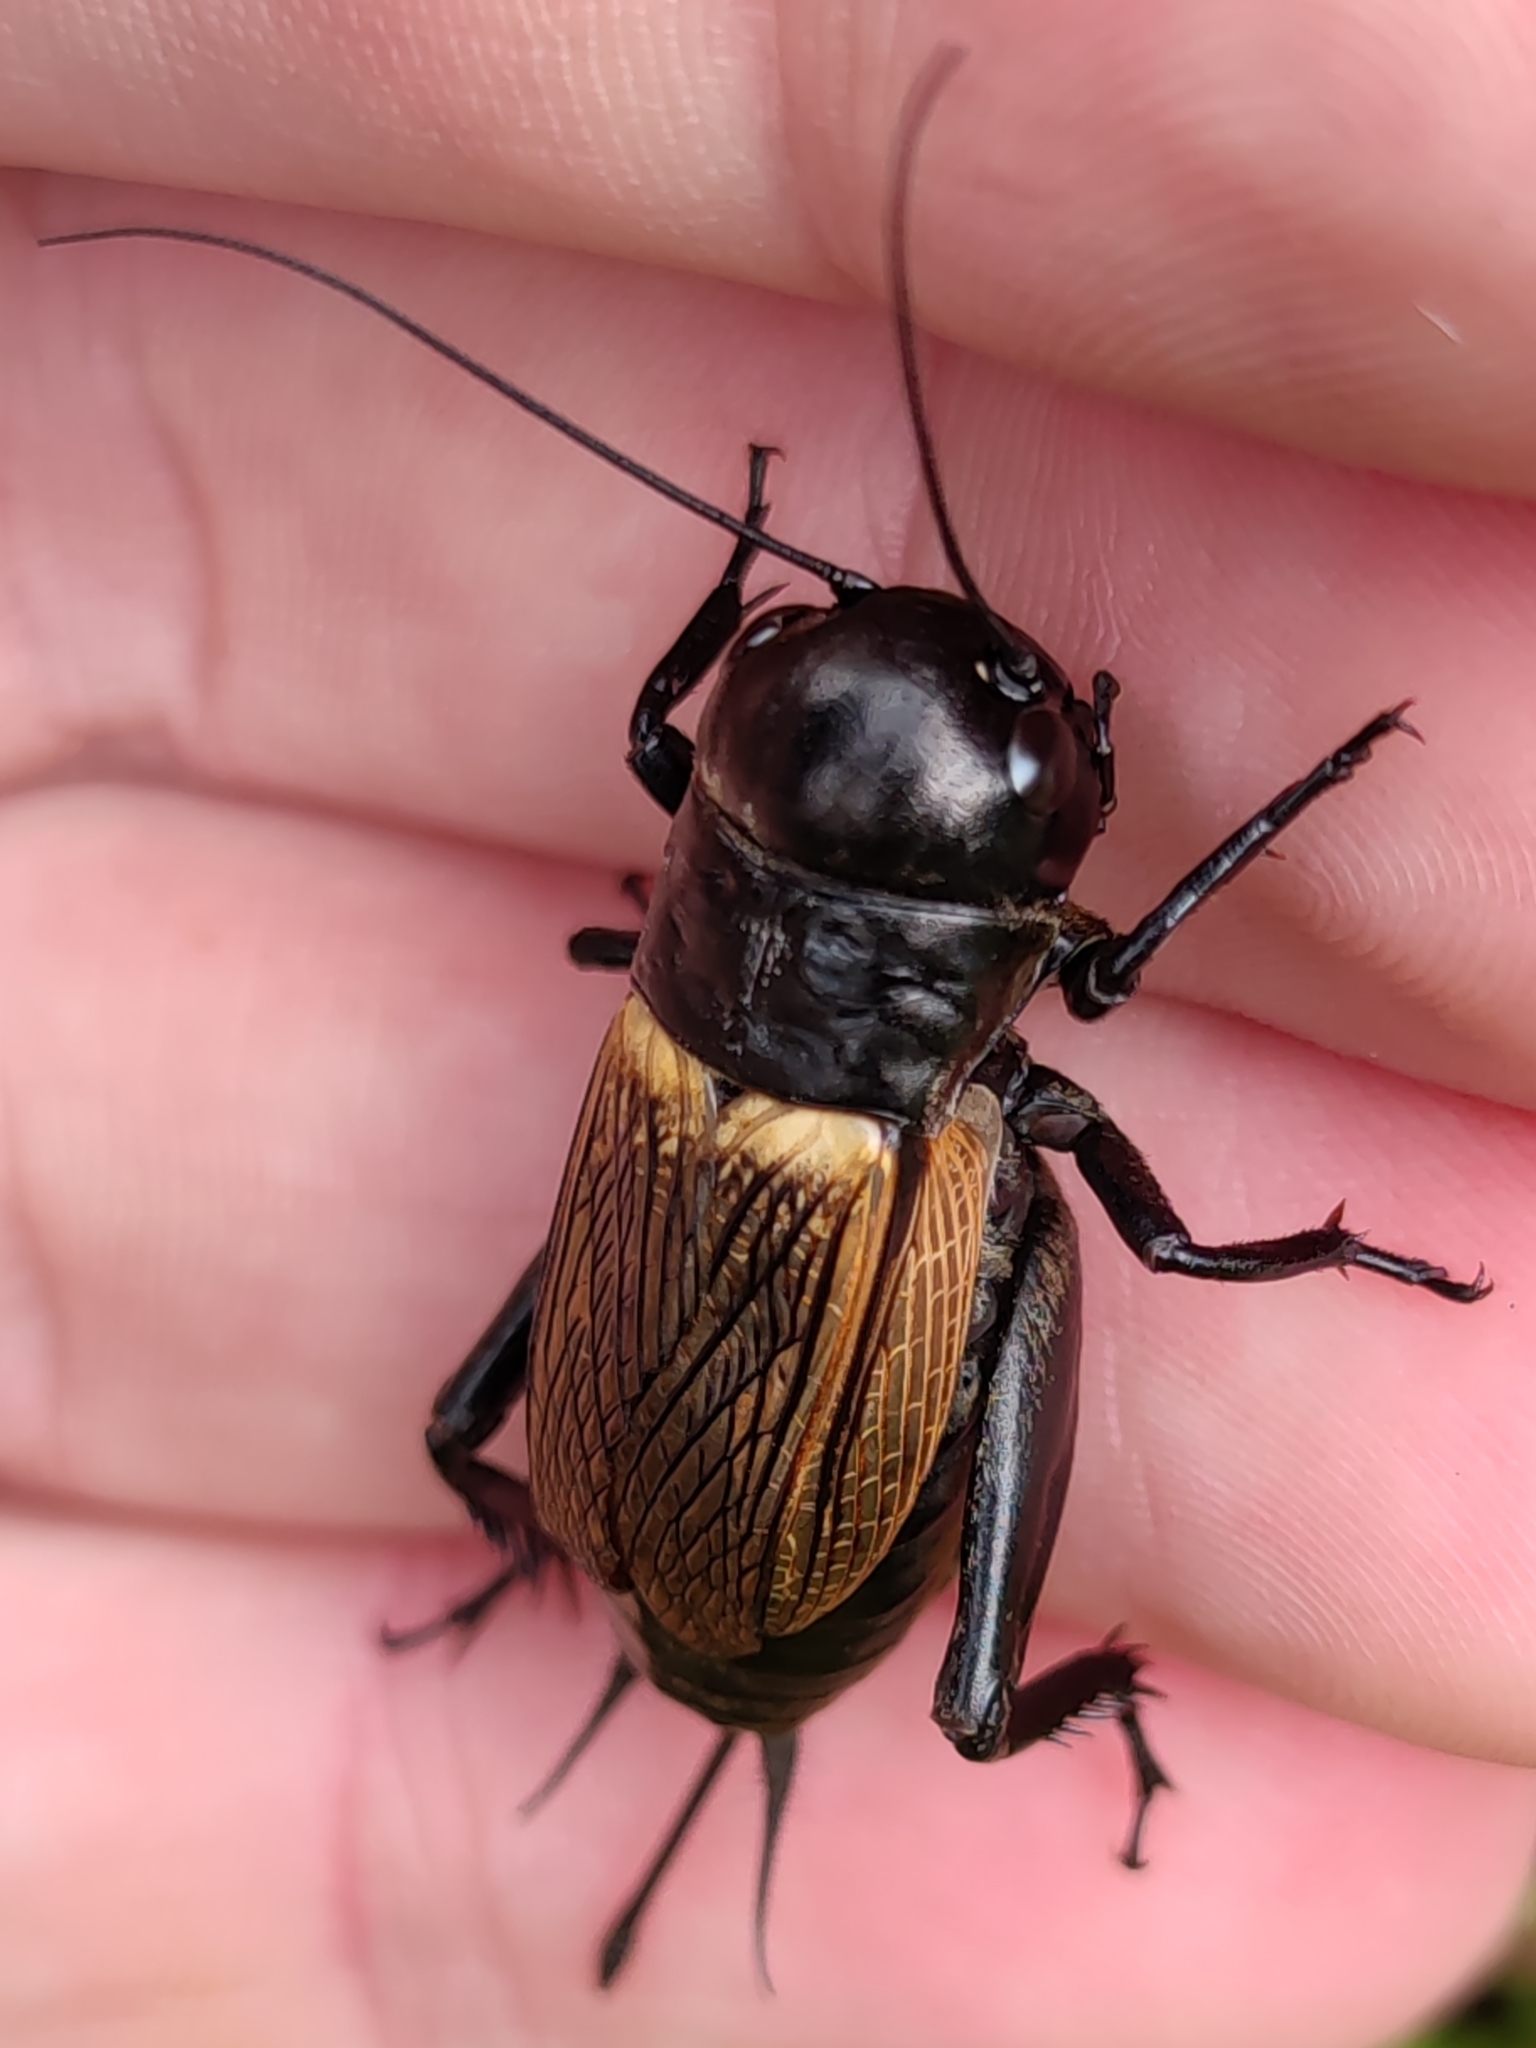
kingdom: Animalia
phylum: Arthropoda
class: Insecta
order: Orthoptera
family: Gryllidae
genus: Gryllus
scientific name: Gryllus campestris
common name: Field cricket
